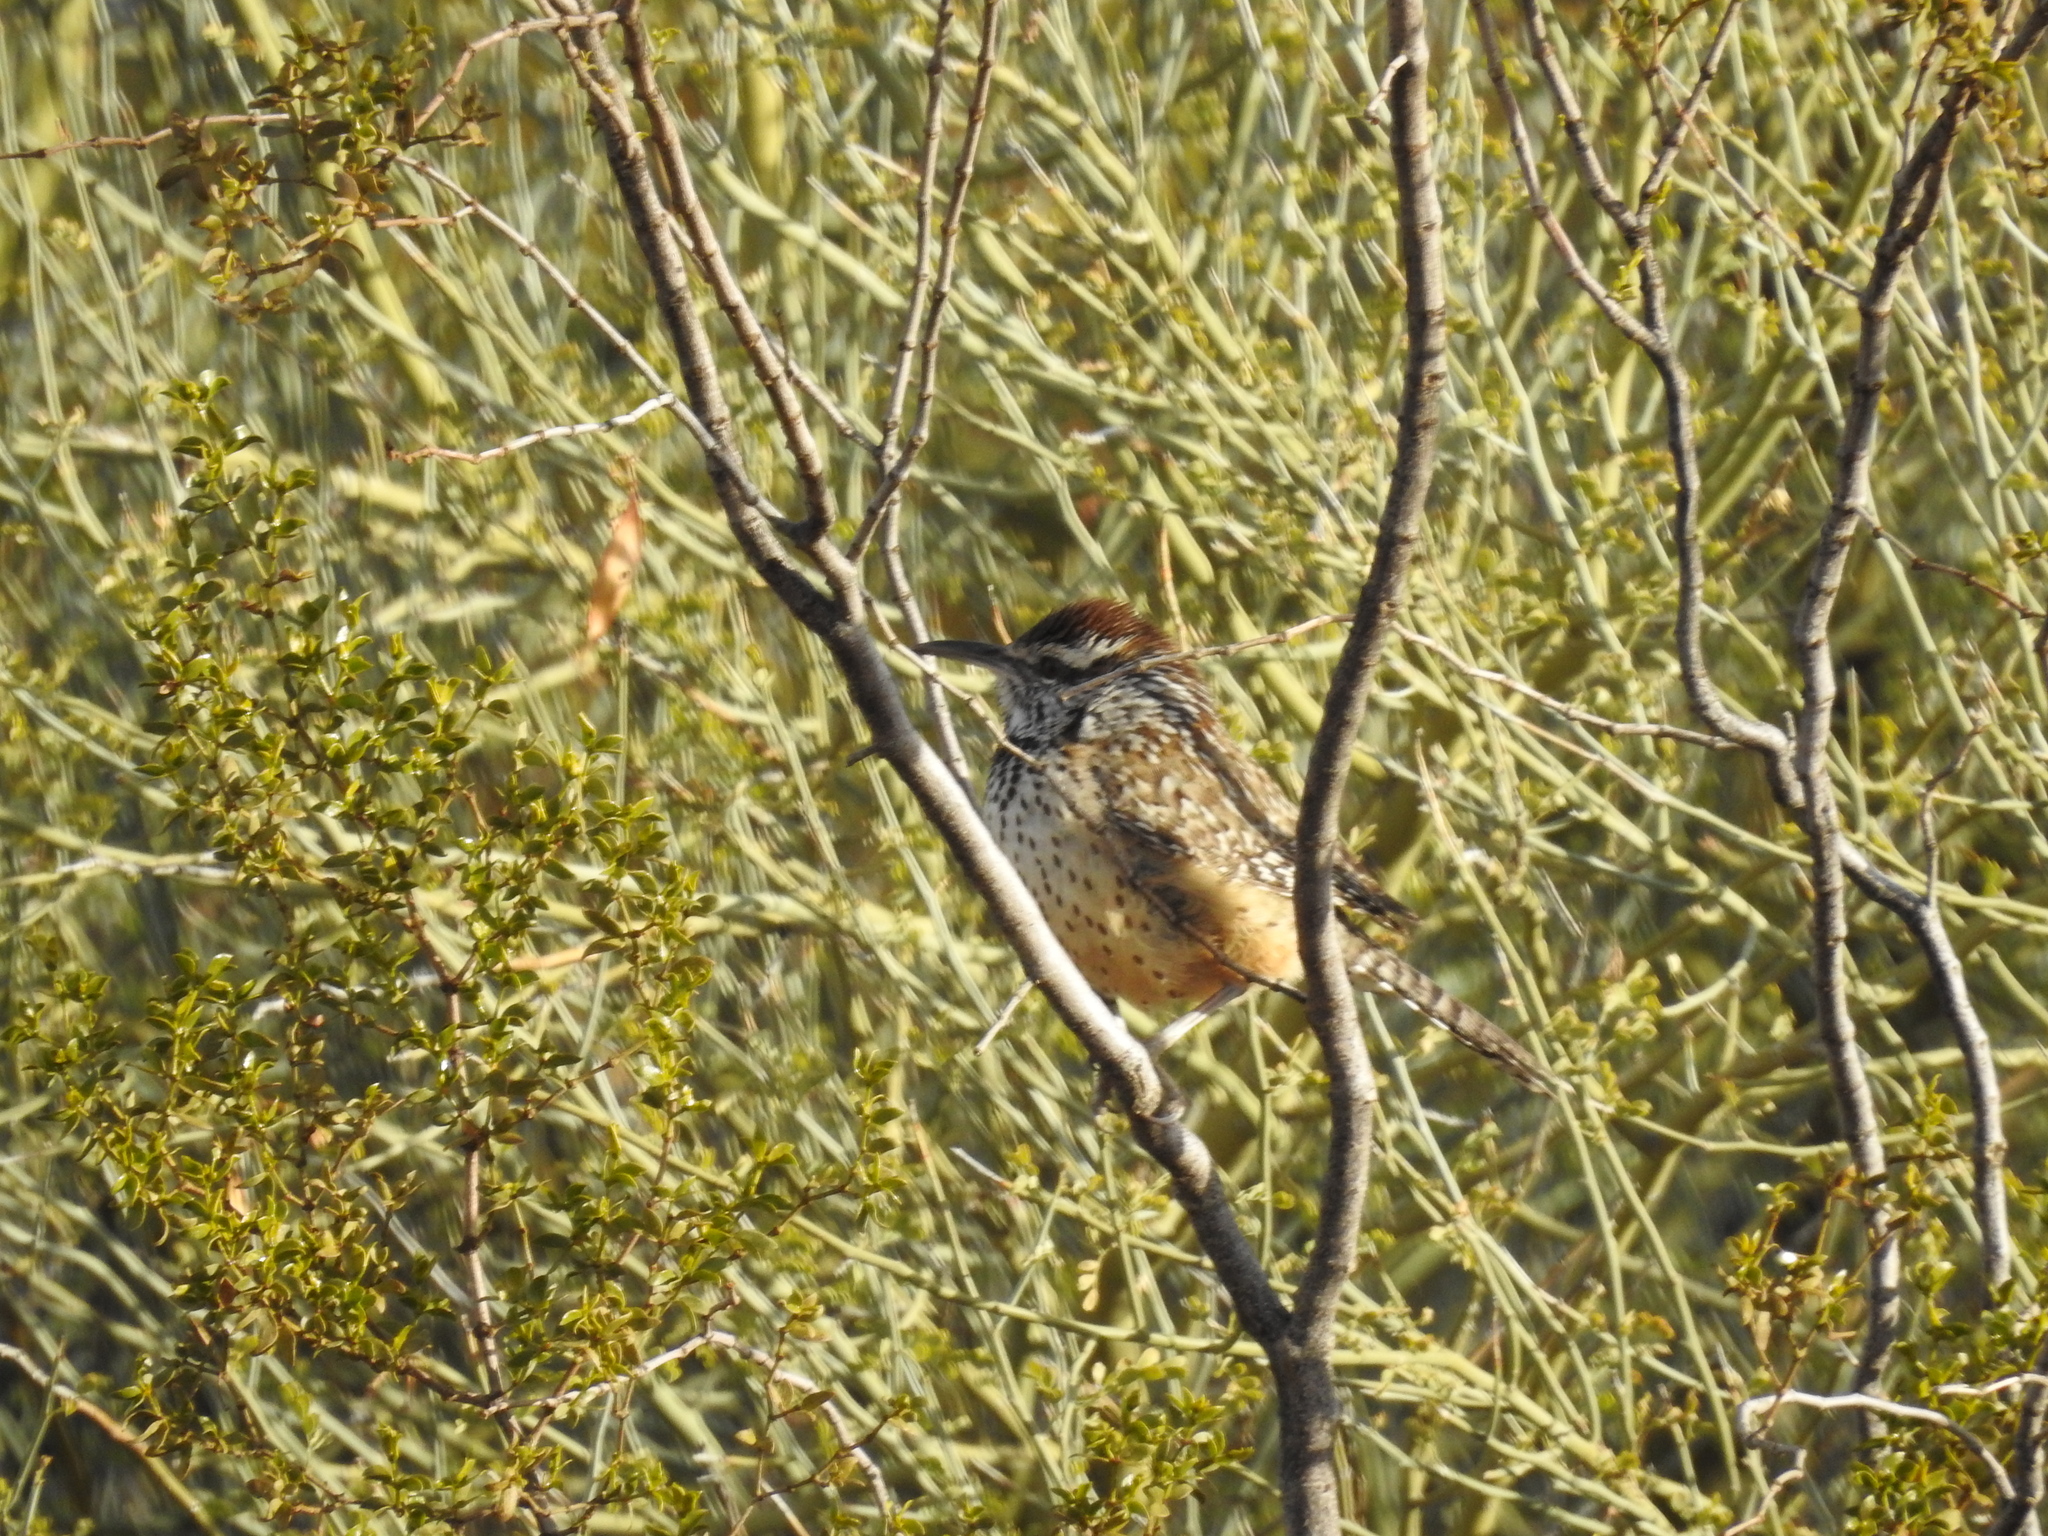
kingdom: Animalia
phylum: Chordata
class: Aves
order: Passeriformes
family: Troglodytidae
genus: Campylorhynchus
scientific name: Campylorhynchus brunneicapillus
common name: Cactus wren
